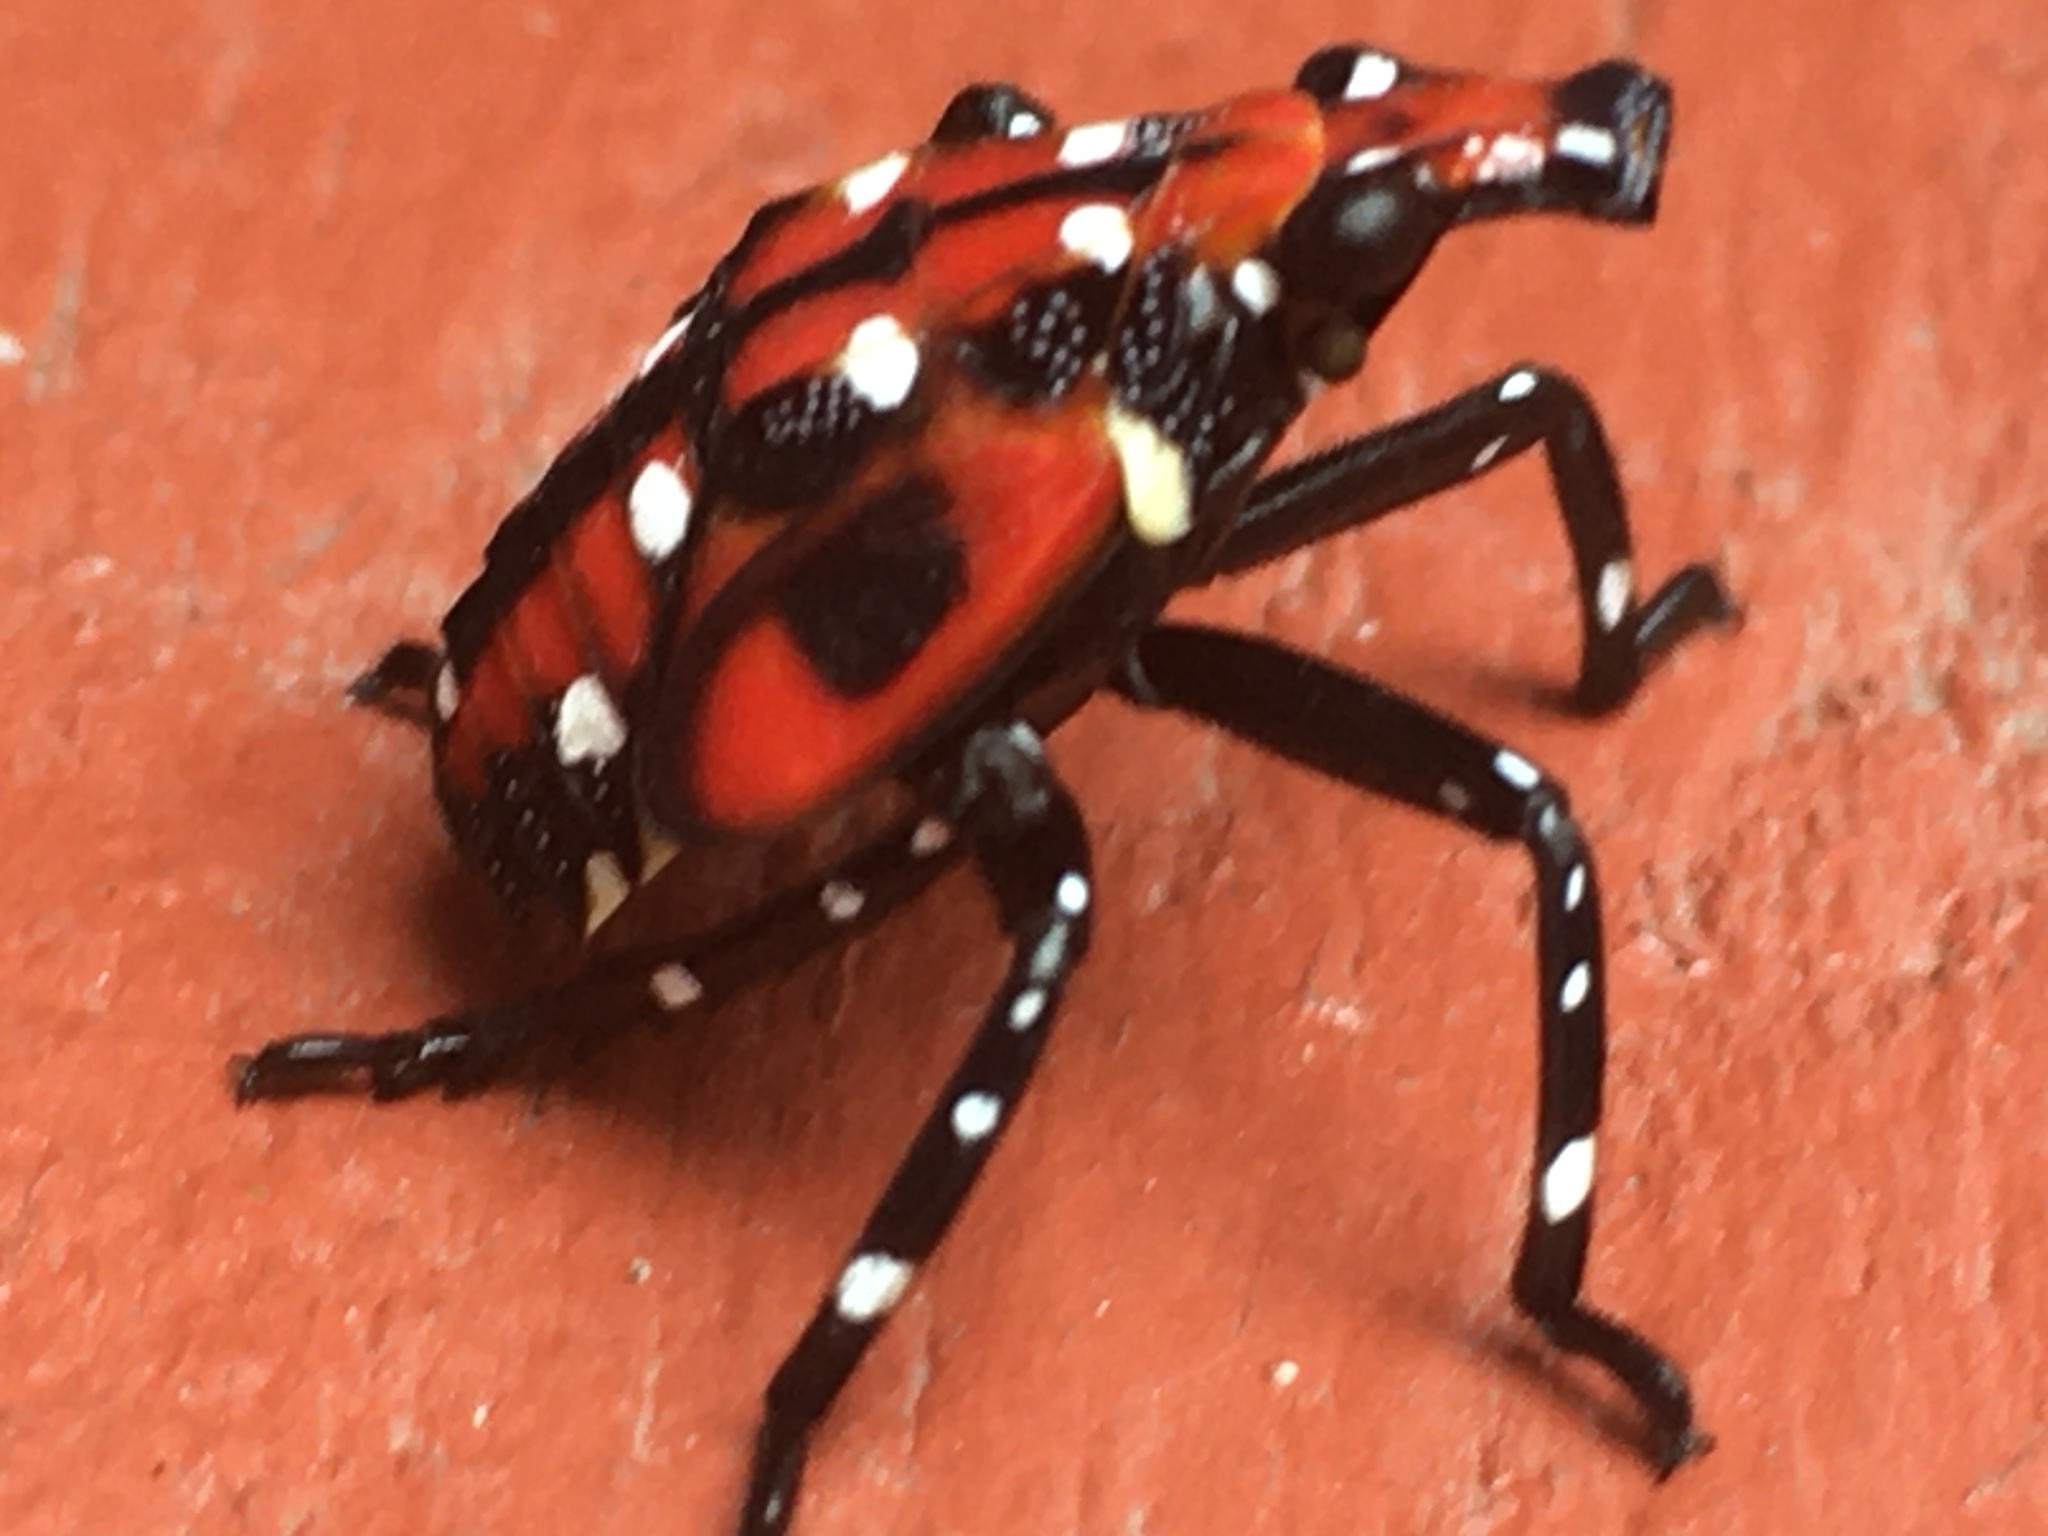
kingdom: Animalia
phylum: Arthropoda
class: Insecta
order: Hemiptera
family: Fulgoridae
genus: Lycorma
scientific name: Lycorma delicatula
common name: Spotted lanternfly
